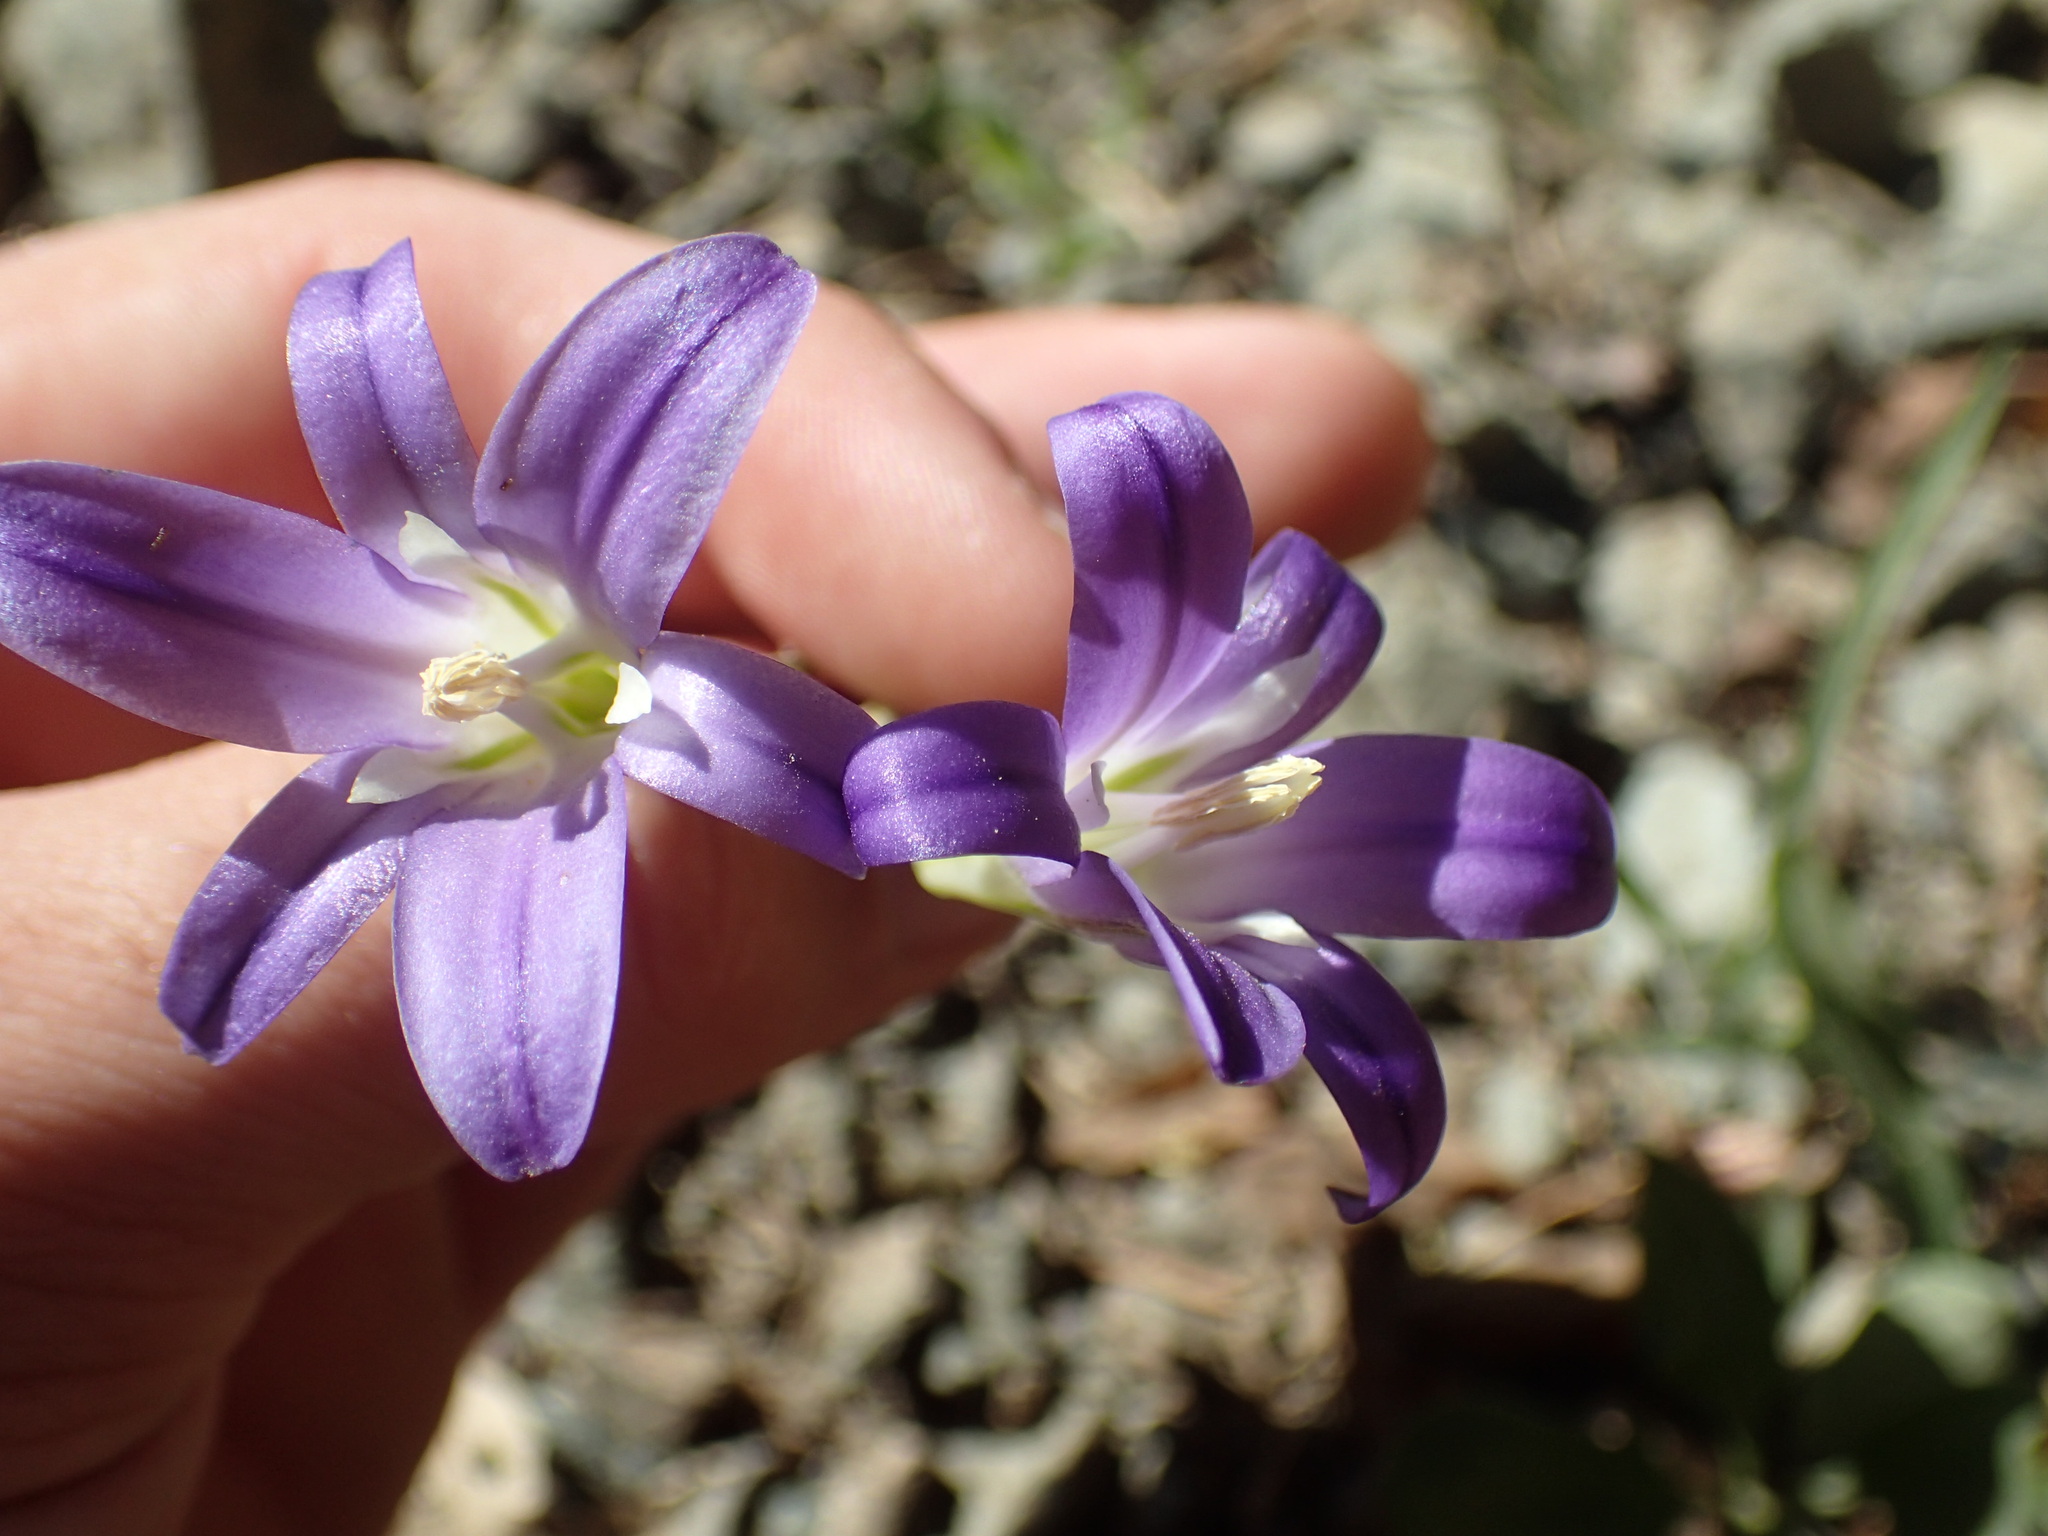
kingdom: Plantae
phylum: Tracheophyta
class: Liliopsida
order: Asparagales
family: Asparagaceae
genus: Brodiaea
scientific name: Brodiaea elegans
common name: Elegant cluster-lily
